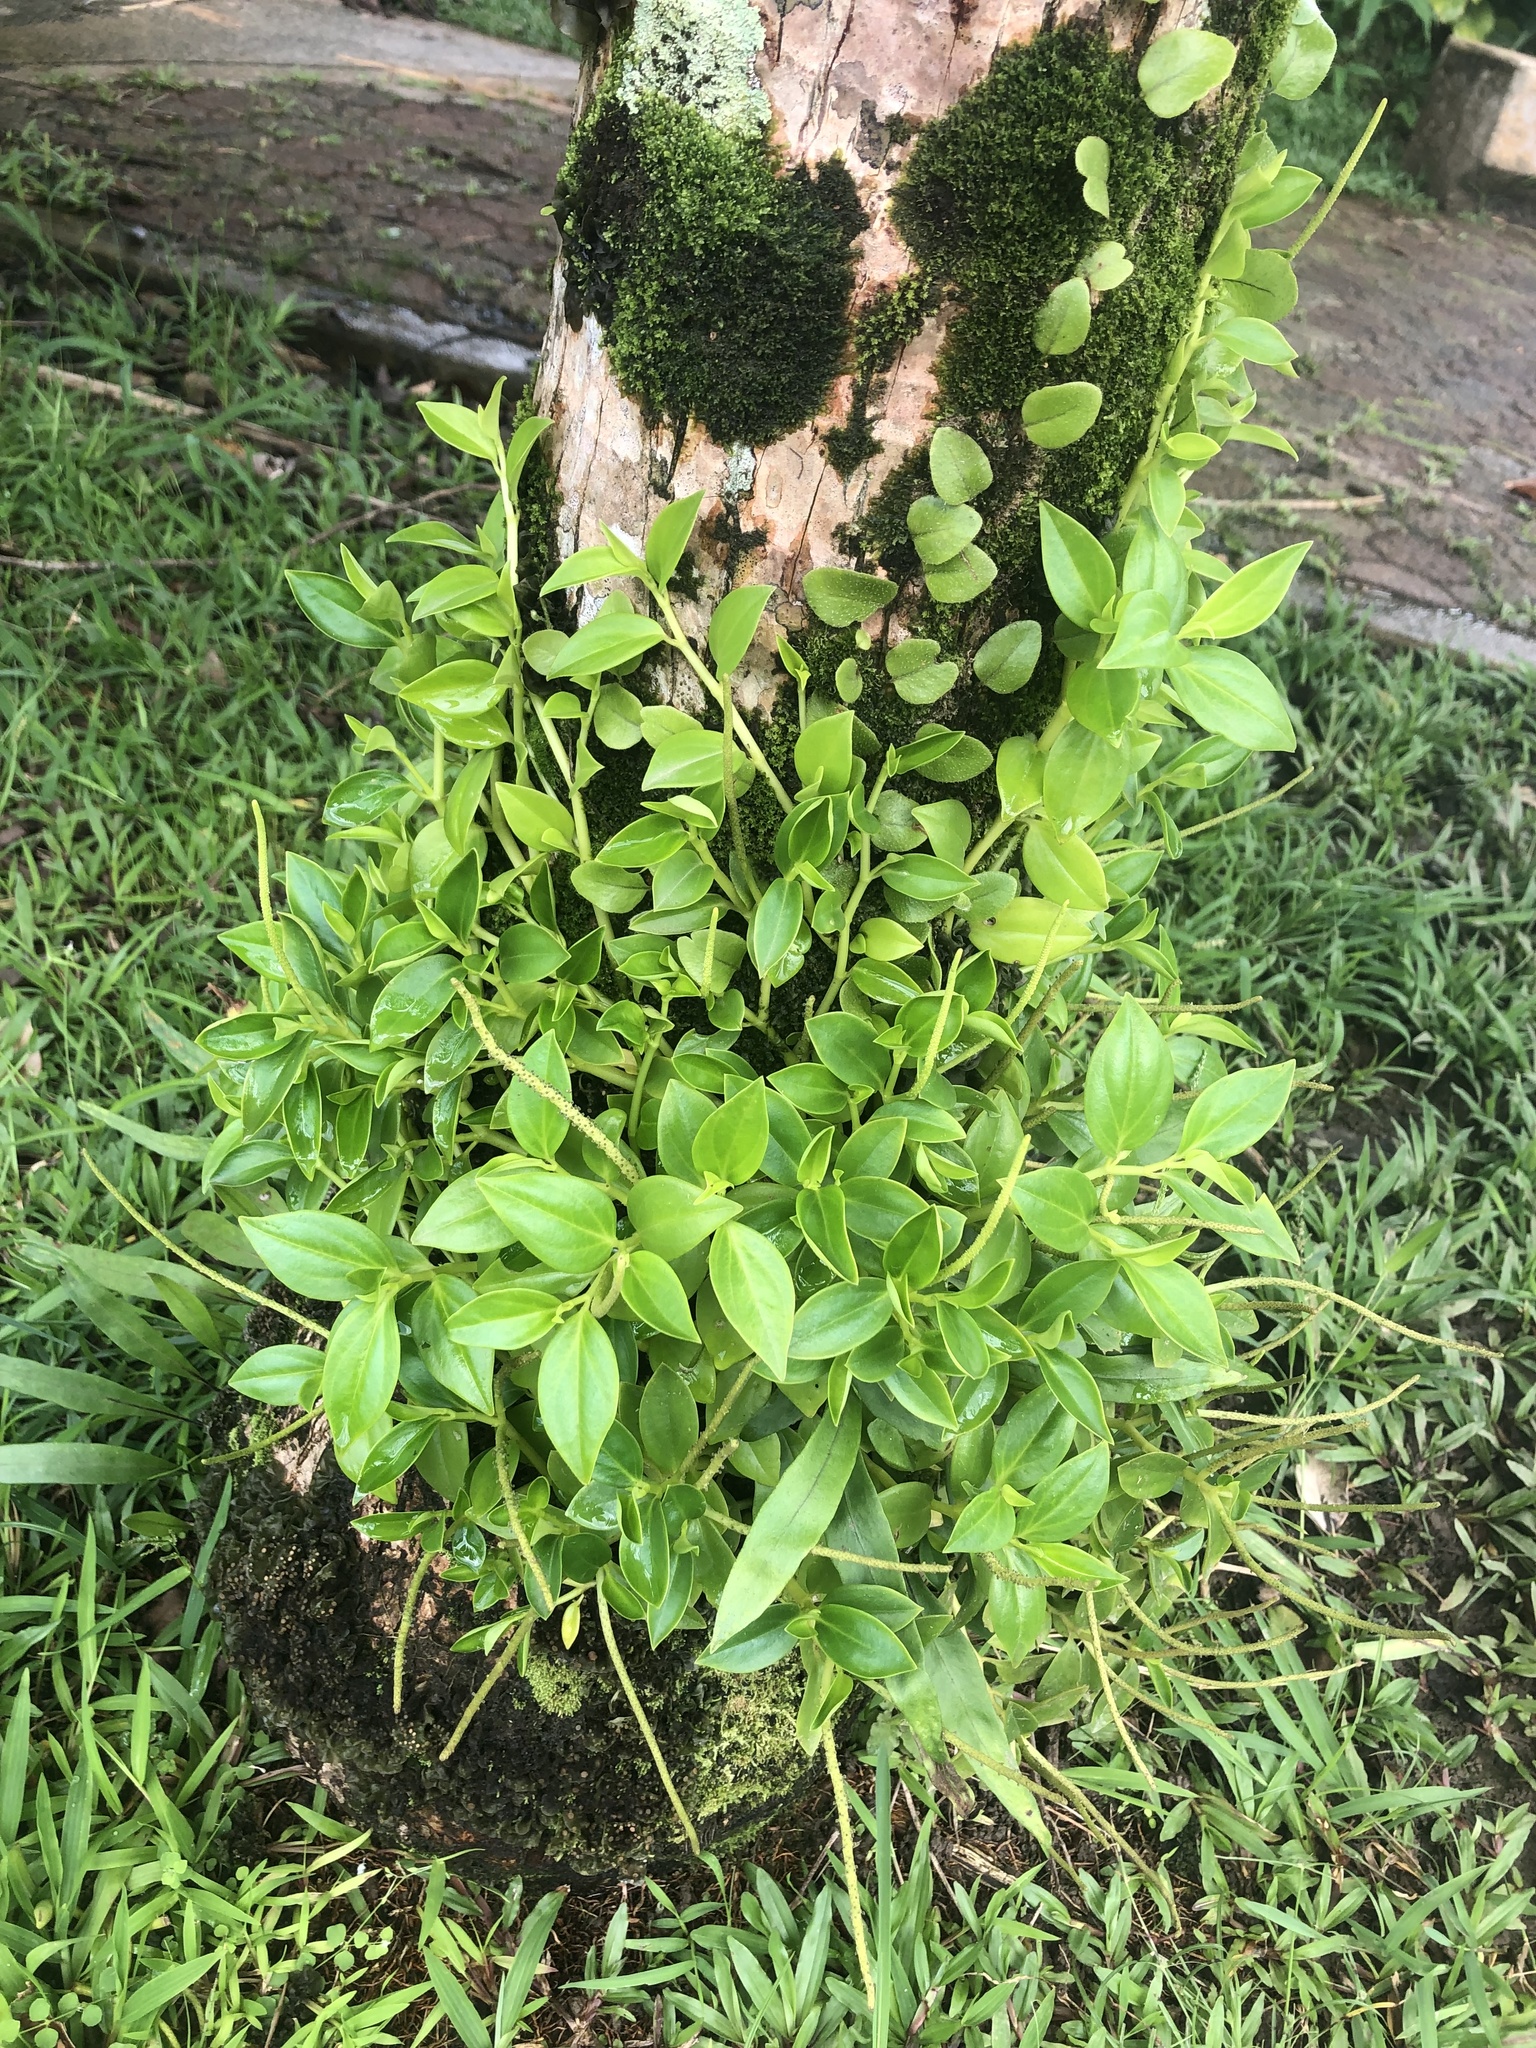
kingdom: Plantae
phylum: Tracheophyta
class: Magnoliopsida
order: Piperales
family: Piperaceae
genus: Peperomia
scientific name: Peperomia glabella
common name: Cypress peperomia
